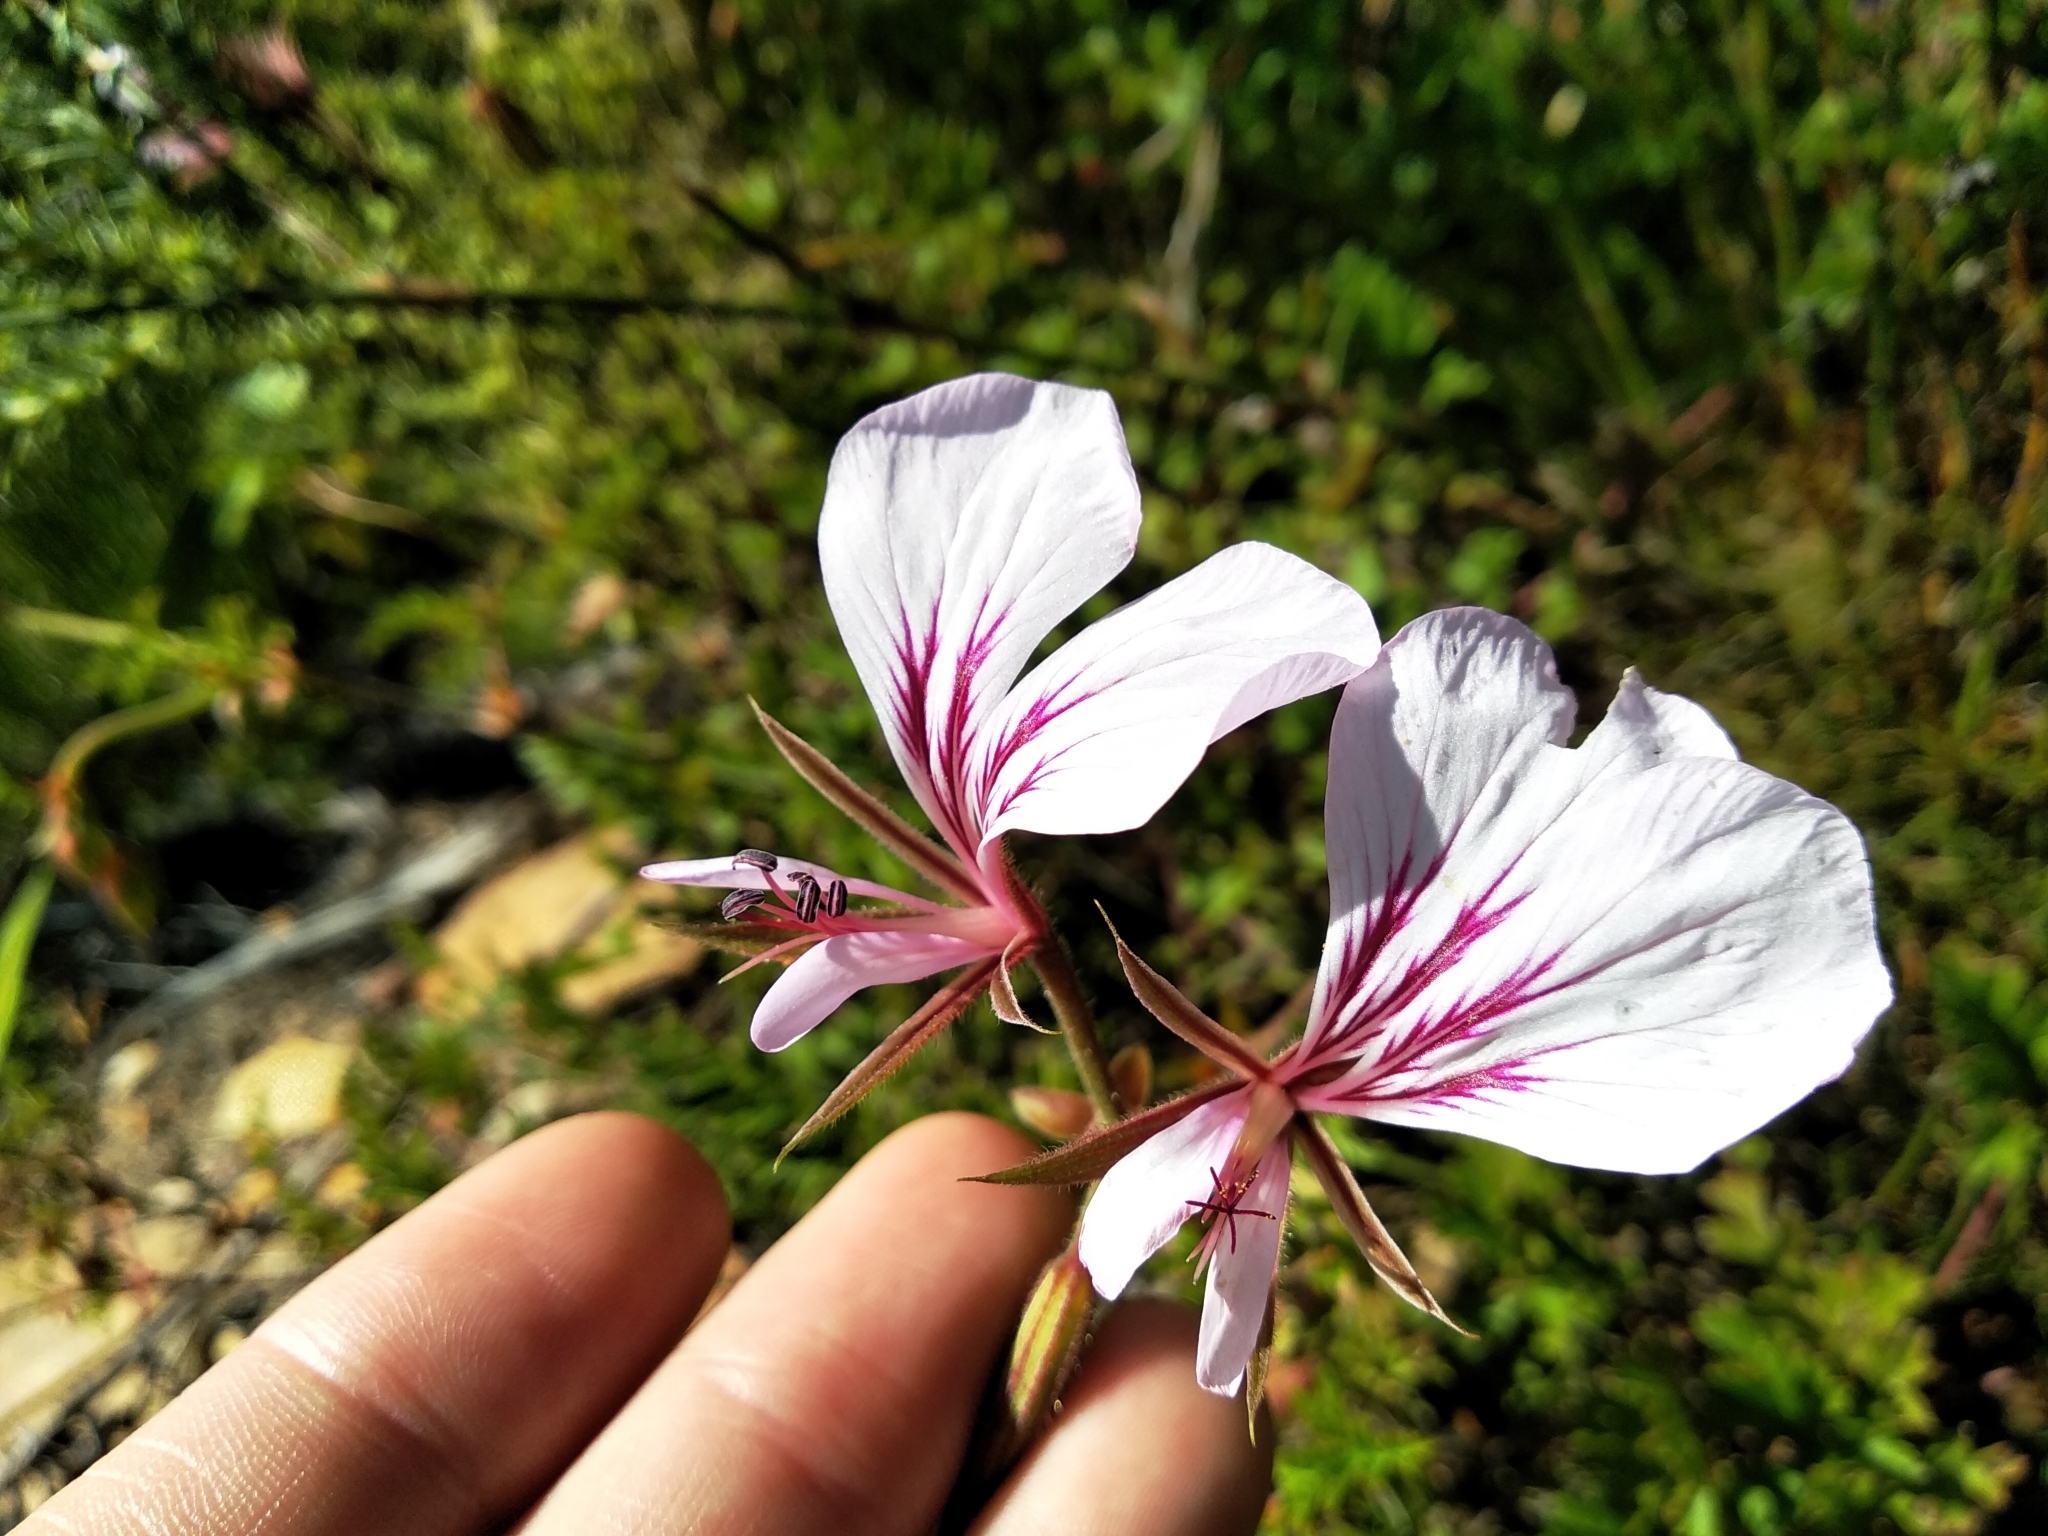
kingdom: Plantae
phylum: Tracheophyta
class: Magnoliopsida
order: Geraniales
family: Geraniaceae
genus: Pelargonium
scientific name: Pelargonium longicaule
